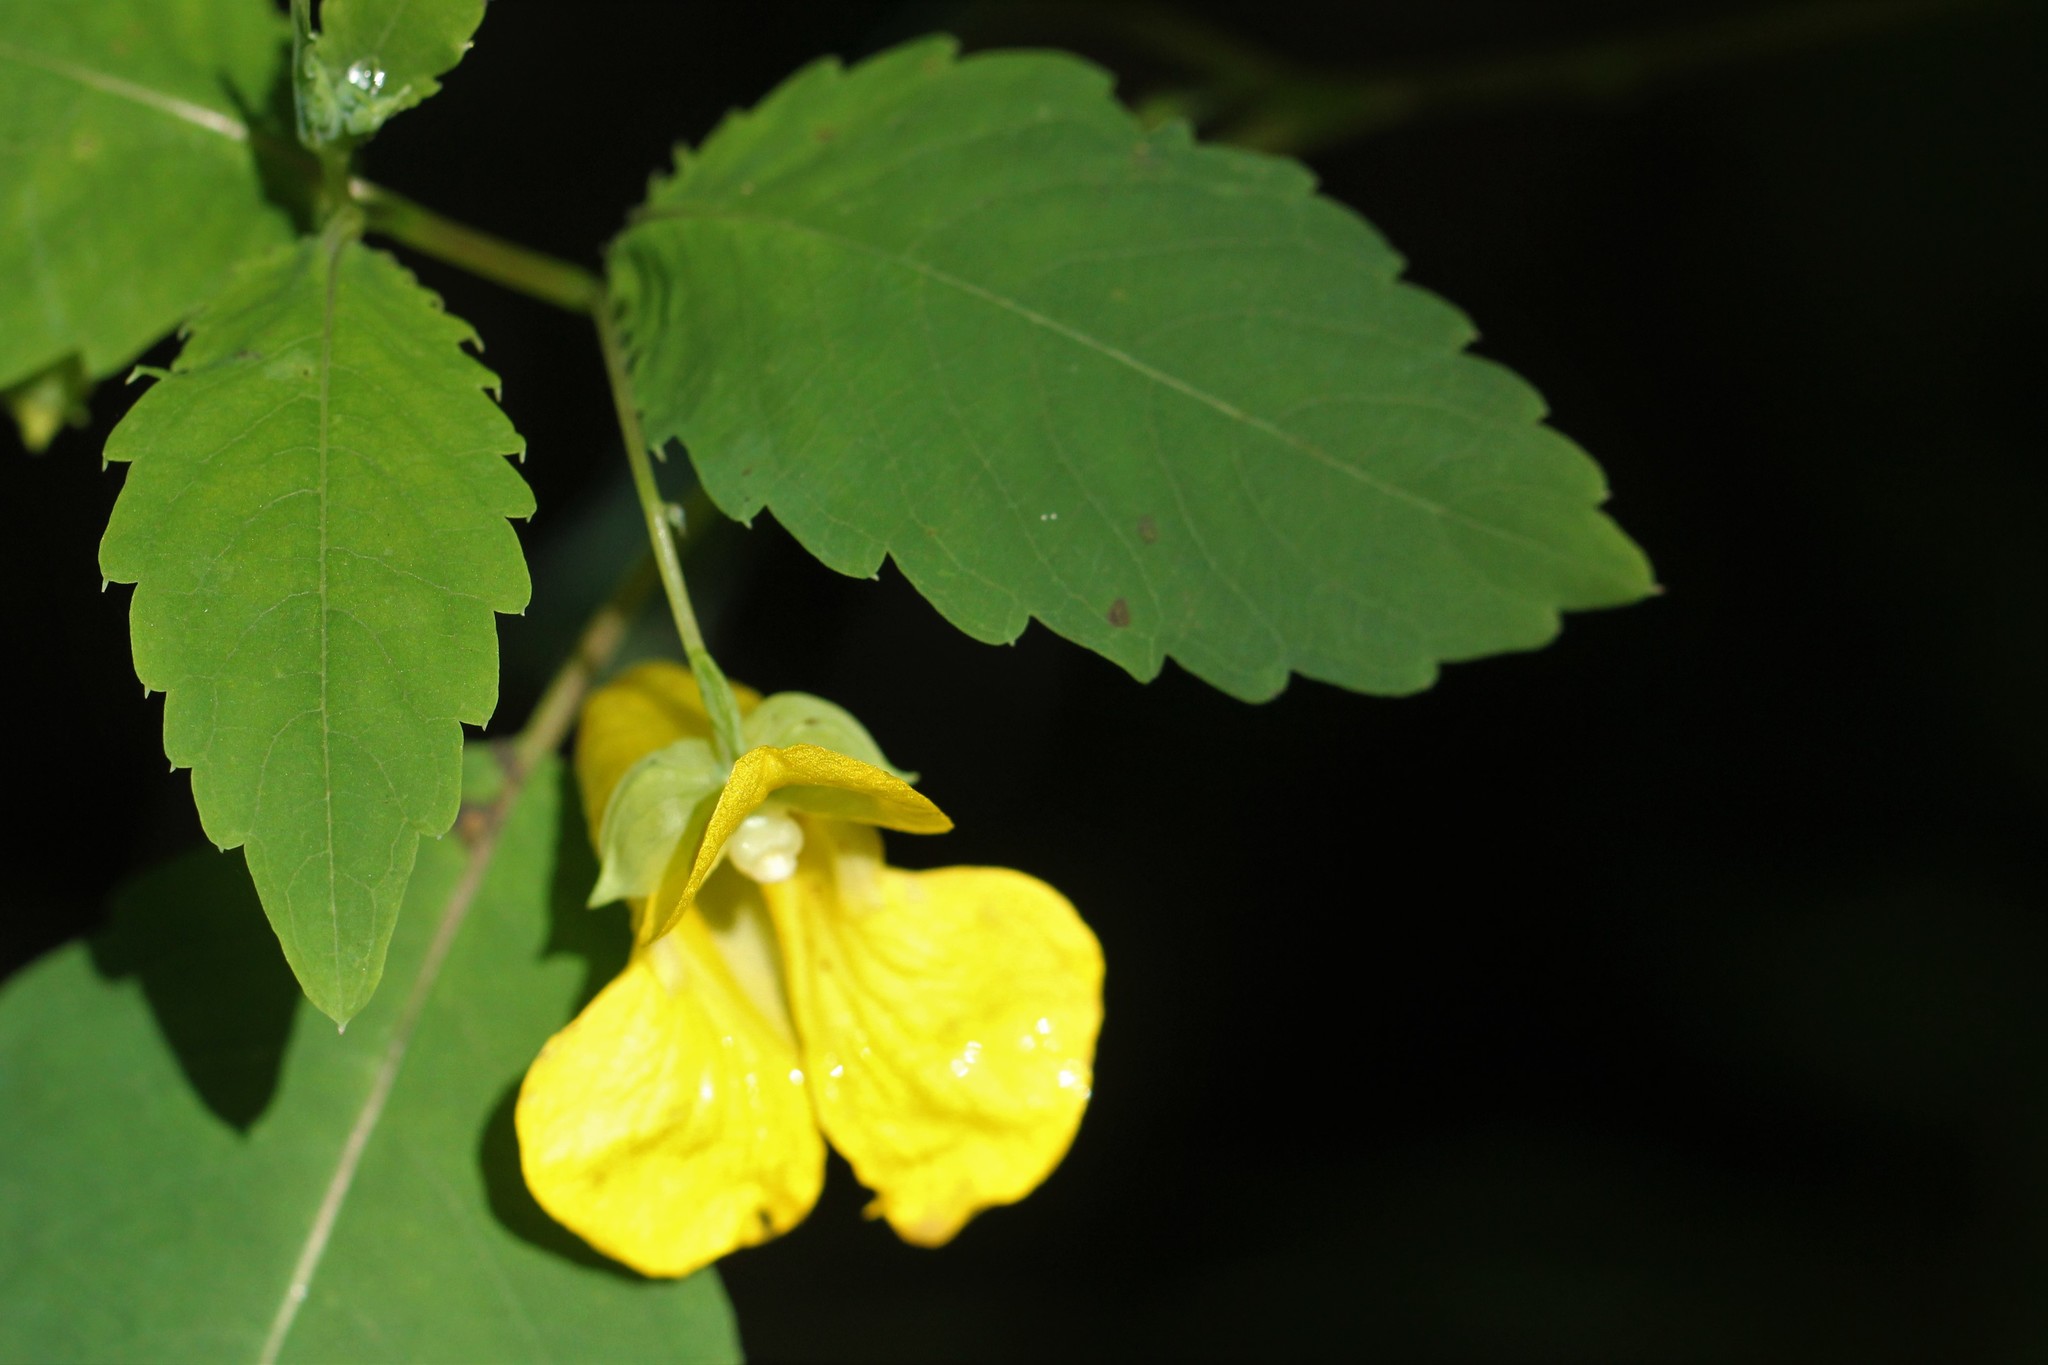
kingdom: Plantae
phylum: Tracheophyta
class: Magnoliopsida
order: Ericales
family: Balsaminaceae
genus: Impatiens
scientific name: Impatiens pallida
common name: Pale snapweed
